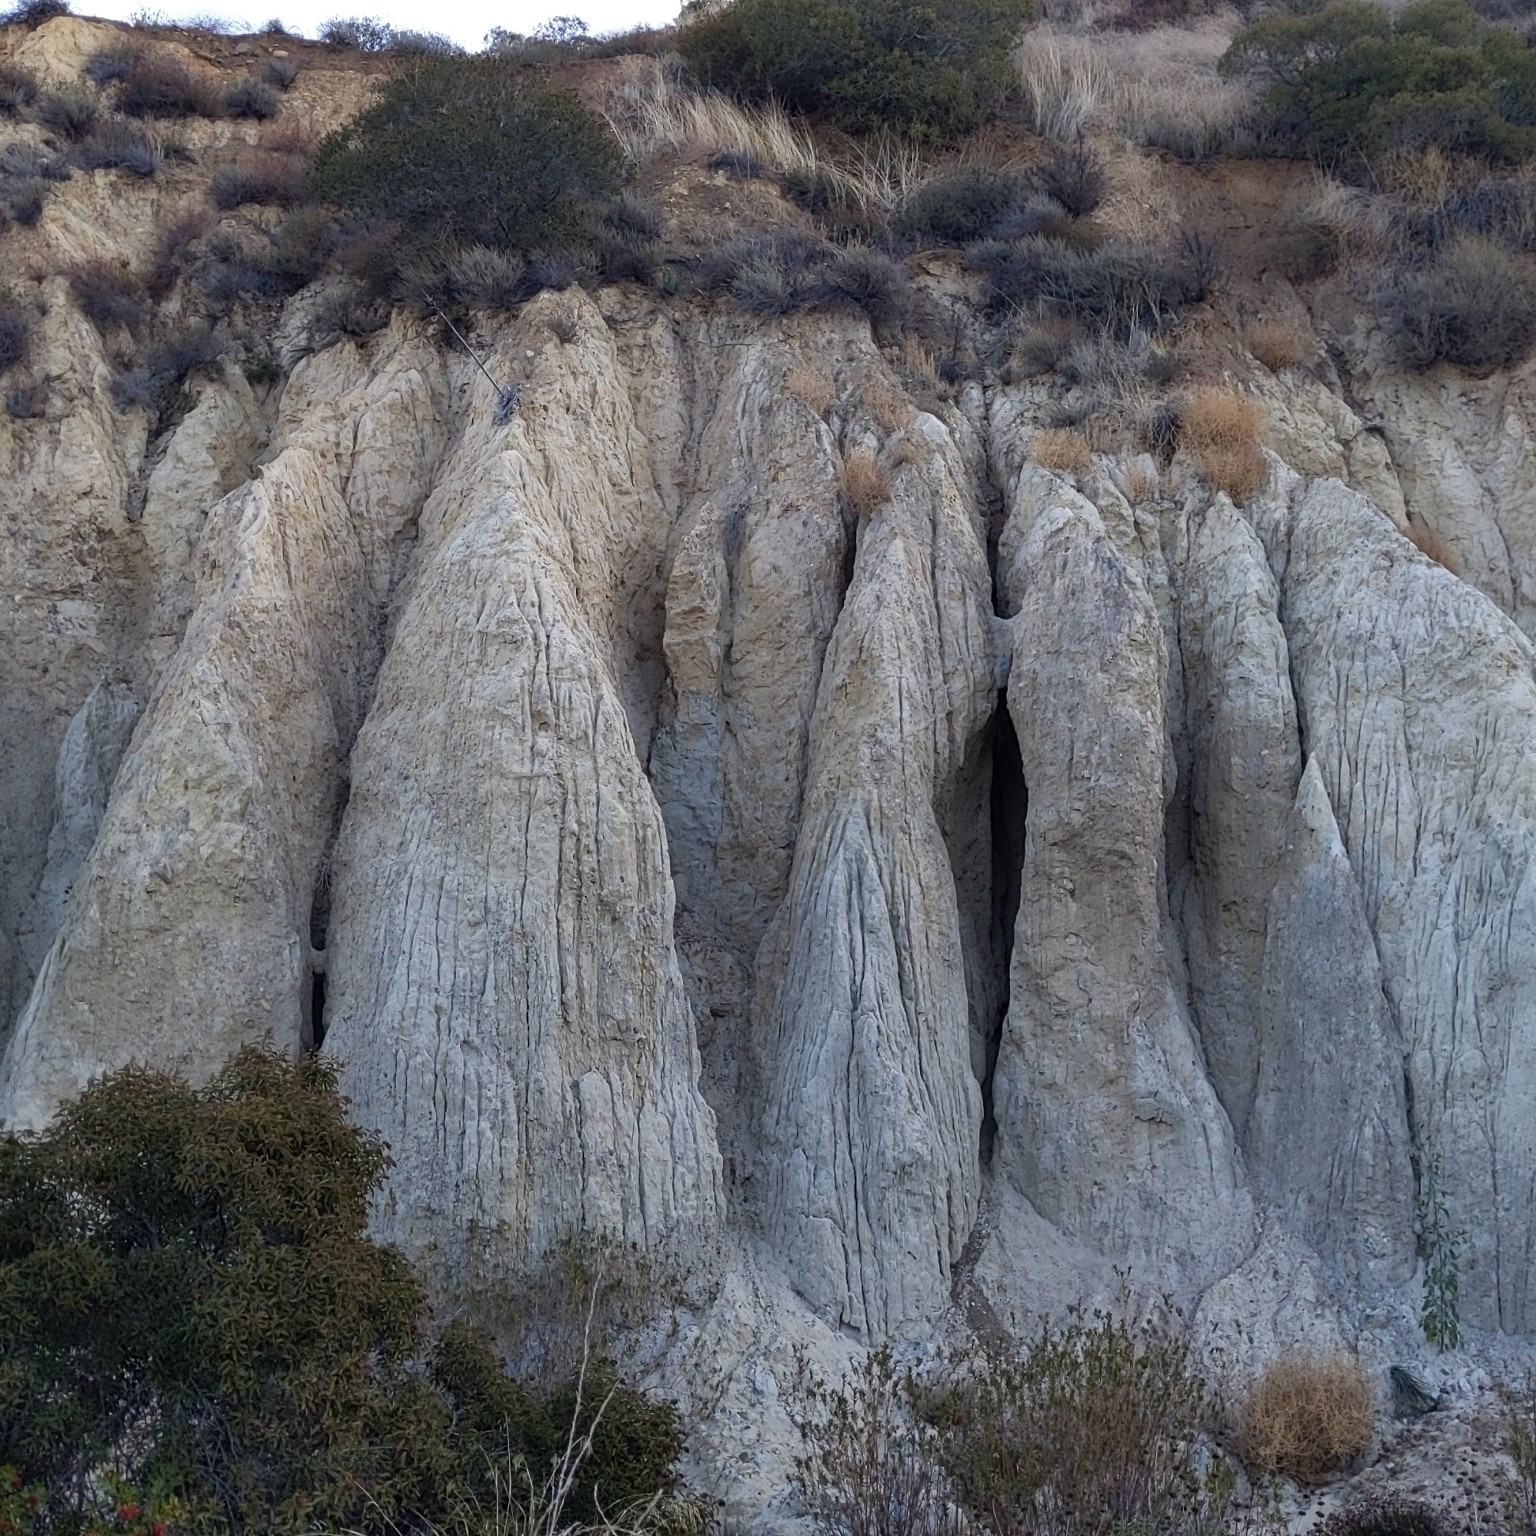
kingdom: Plantae
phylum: Tracheophyta
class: Magnoliopsida
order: Solanales
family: Solanaceae
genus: Nicotiana
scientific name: Nicotiana glauca
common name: Tree tobacco
